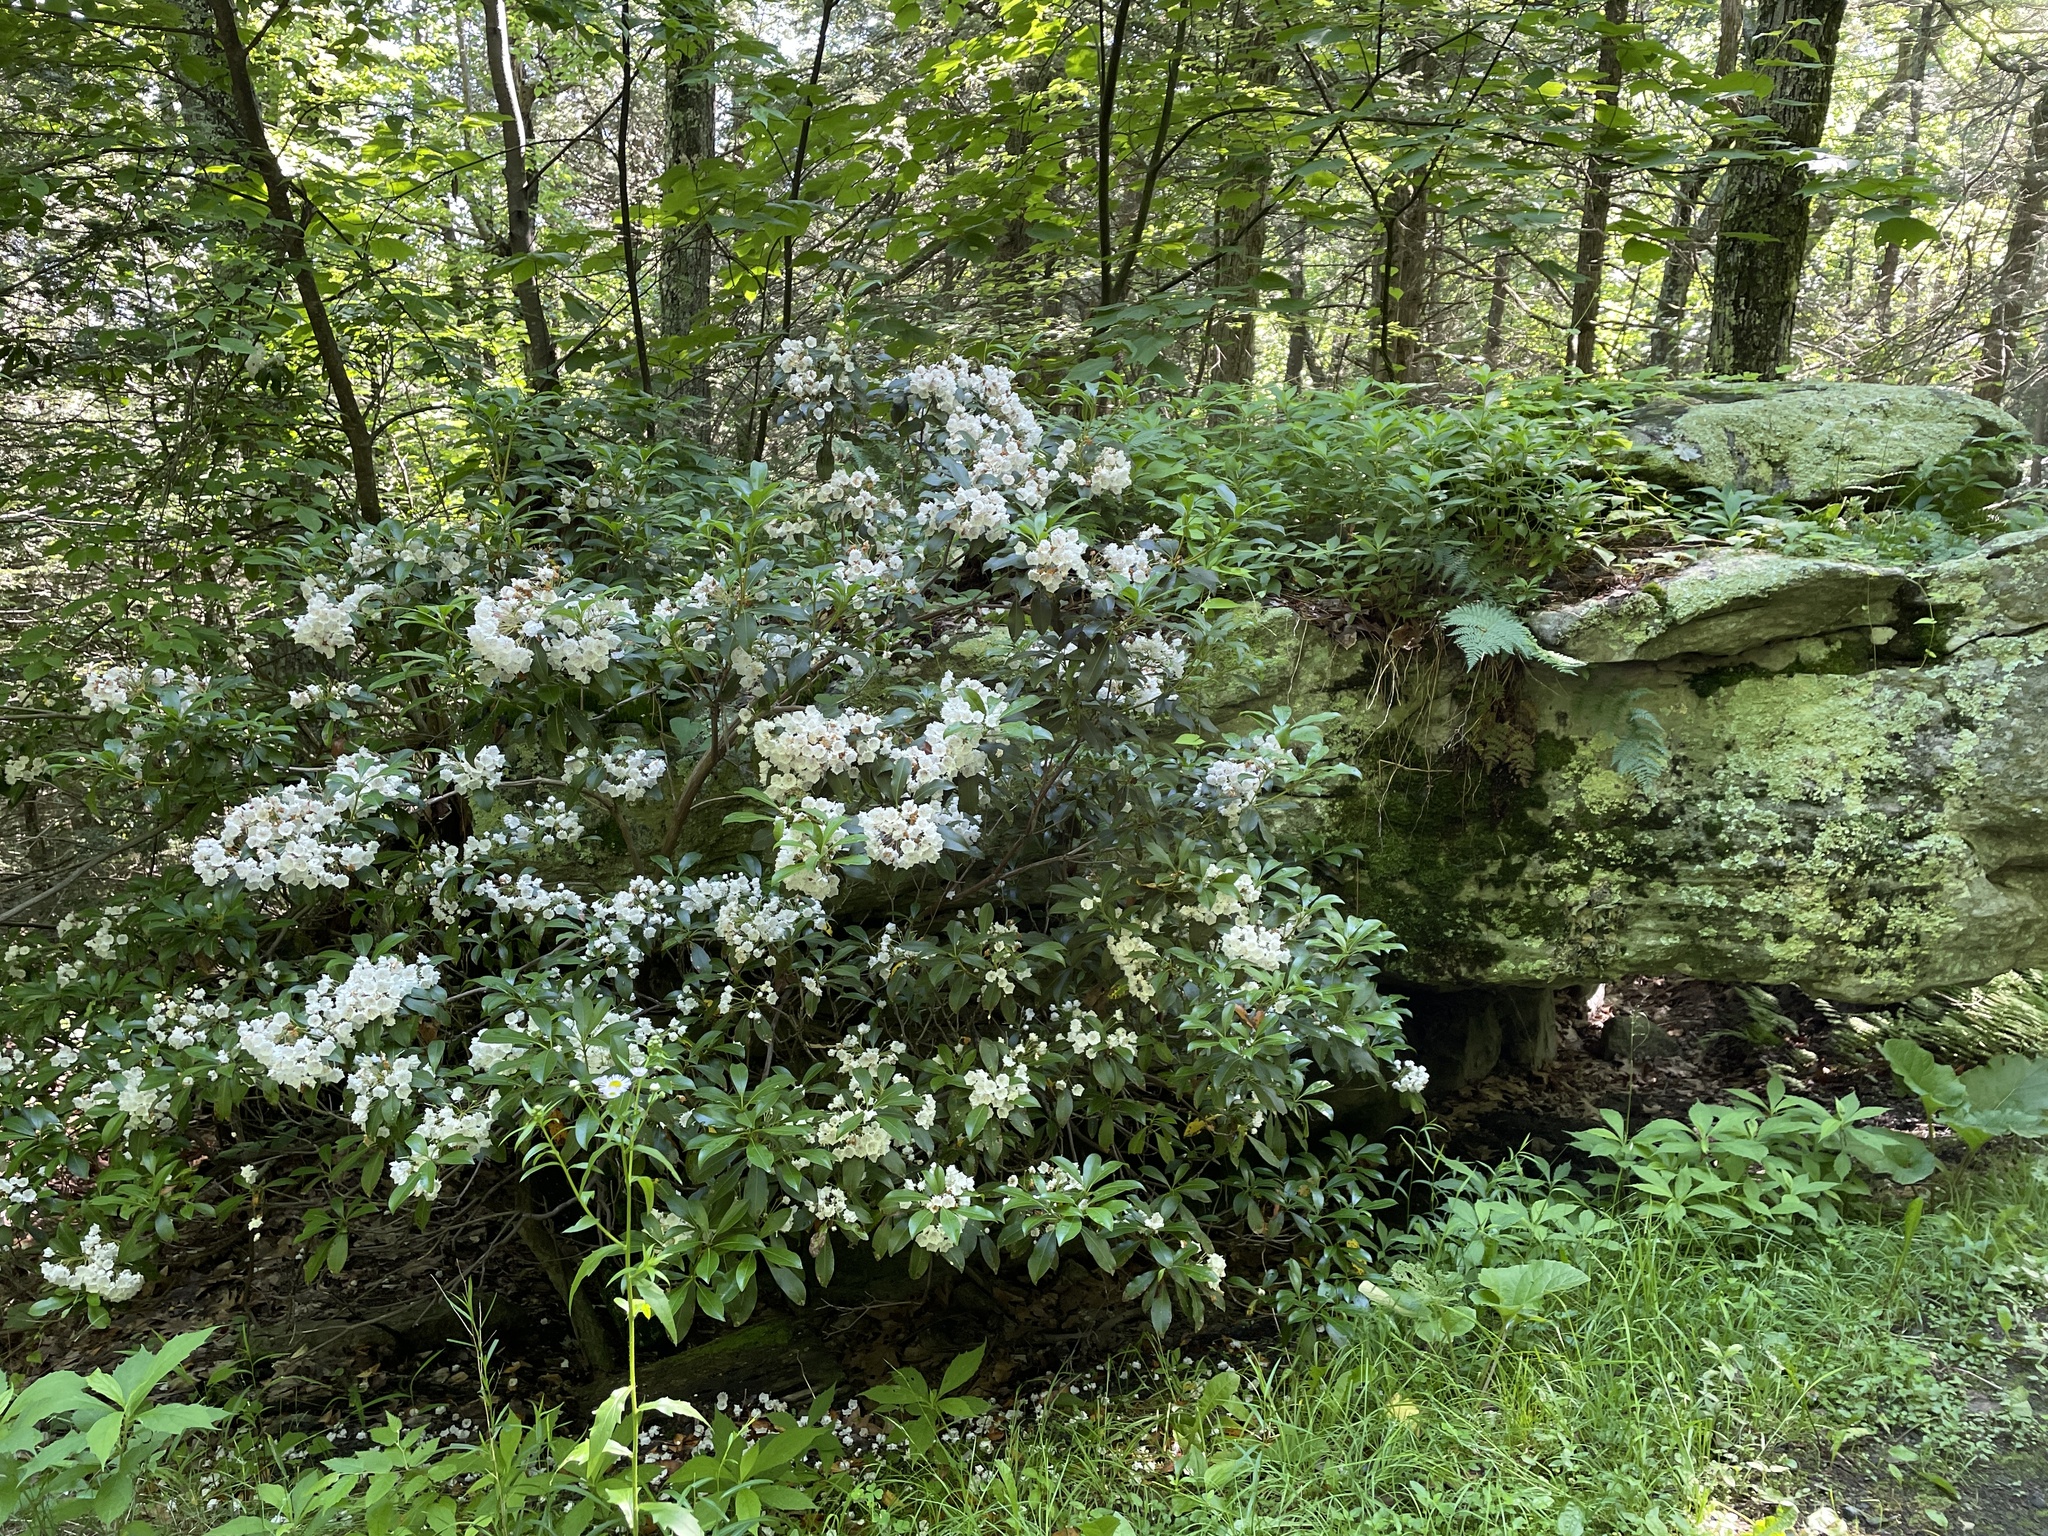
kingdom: Plantae
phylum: Tracheophyta
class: Magnoliopsida
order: Ericales
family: Ericaceae
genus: Kalmia
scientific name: Kalmia latifolia
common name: Mountain-laurel
